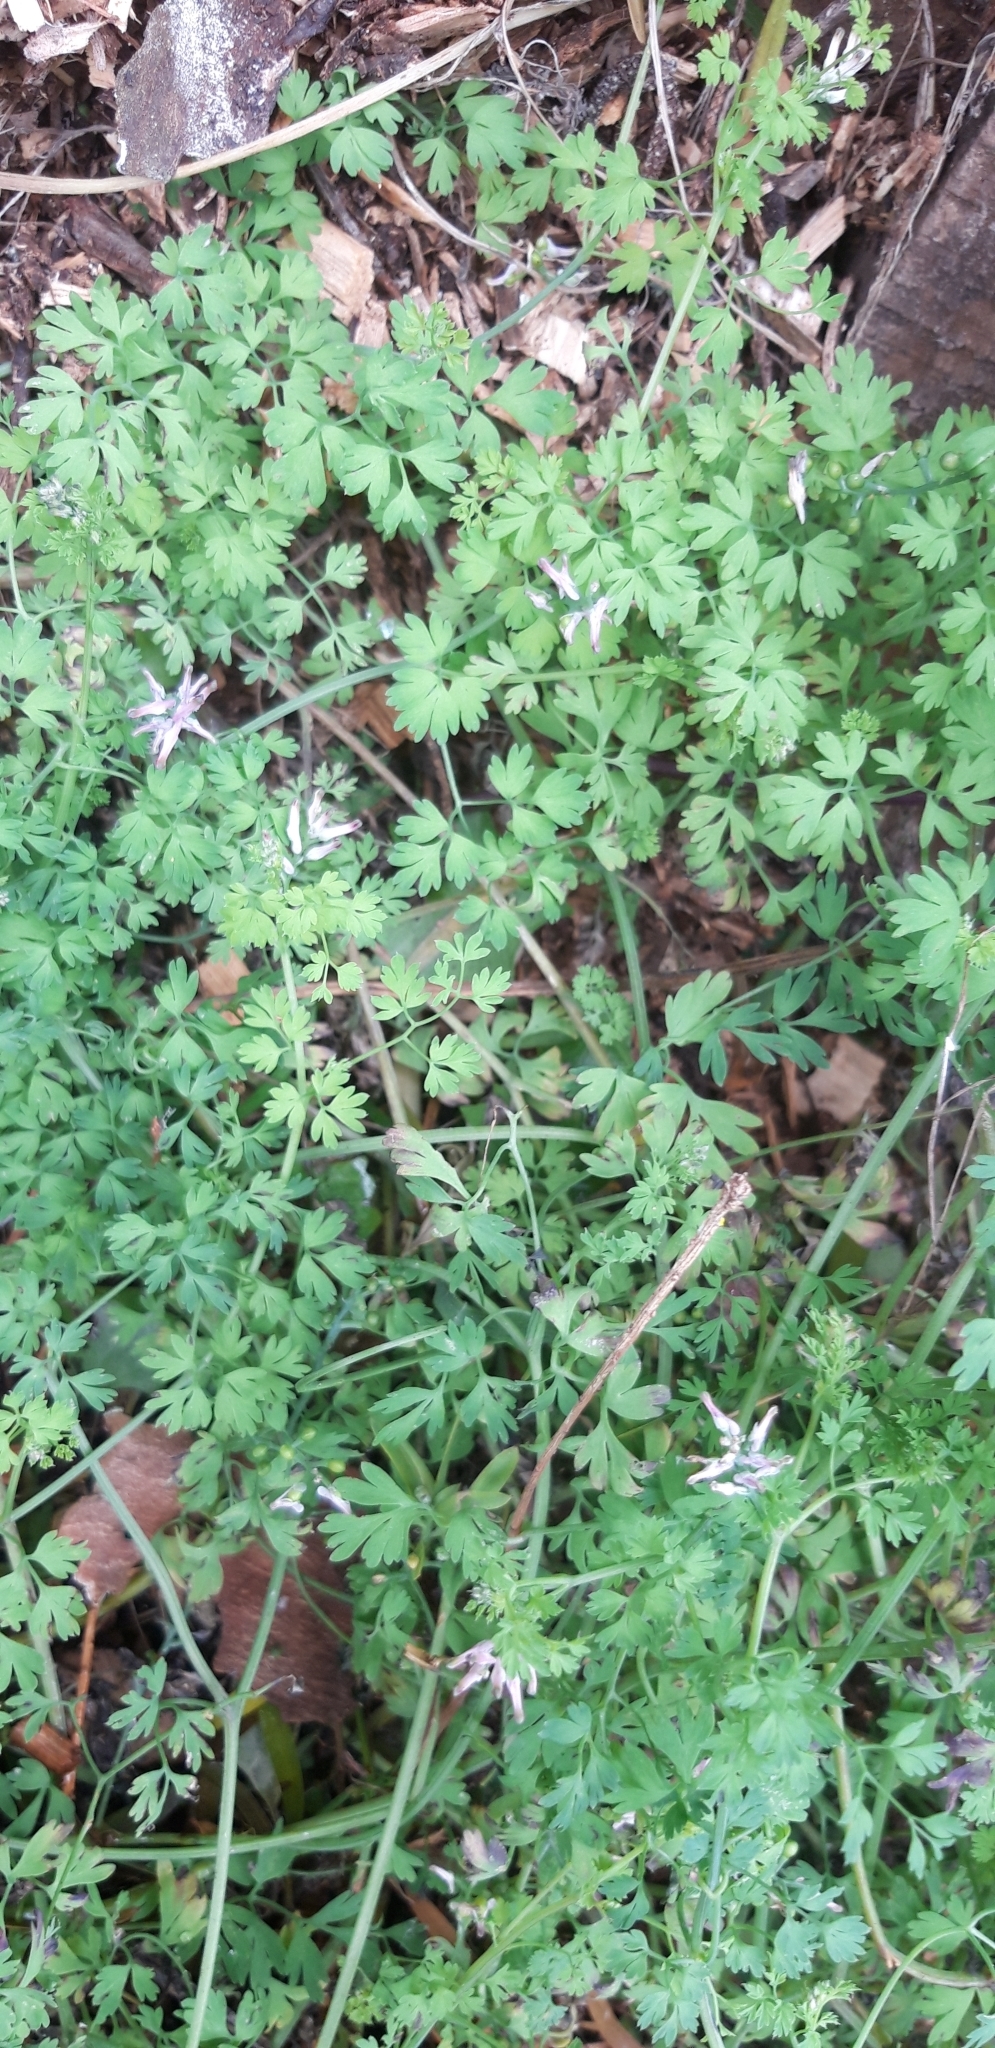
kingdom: Plantae
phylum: Tracheophyta
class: Magnoliopsida
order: Ranunculales
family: Papaveraceae
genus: Fumaria
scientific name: Fumaria muralis
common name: Common ramping-fumitory
